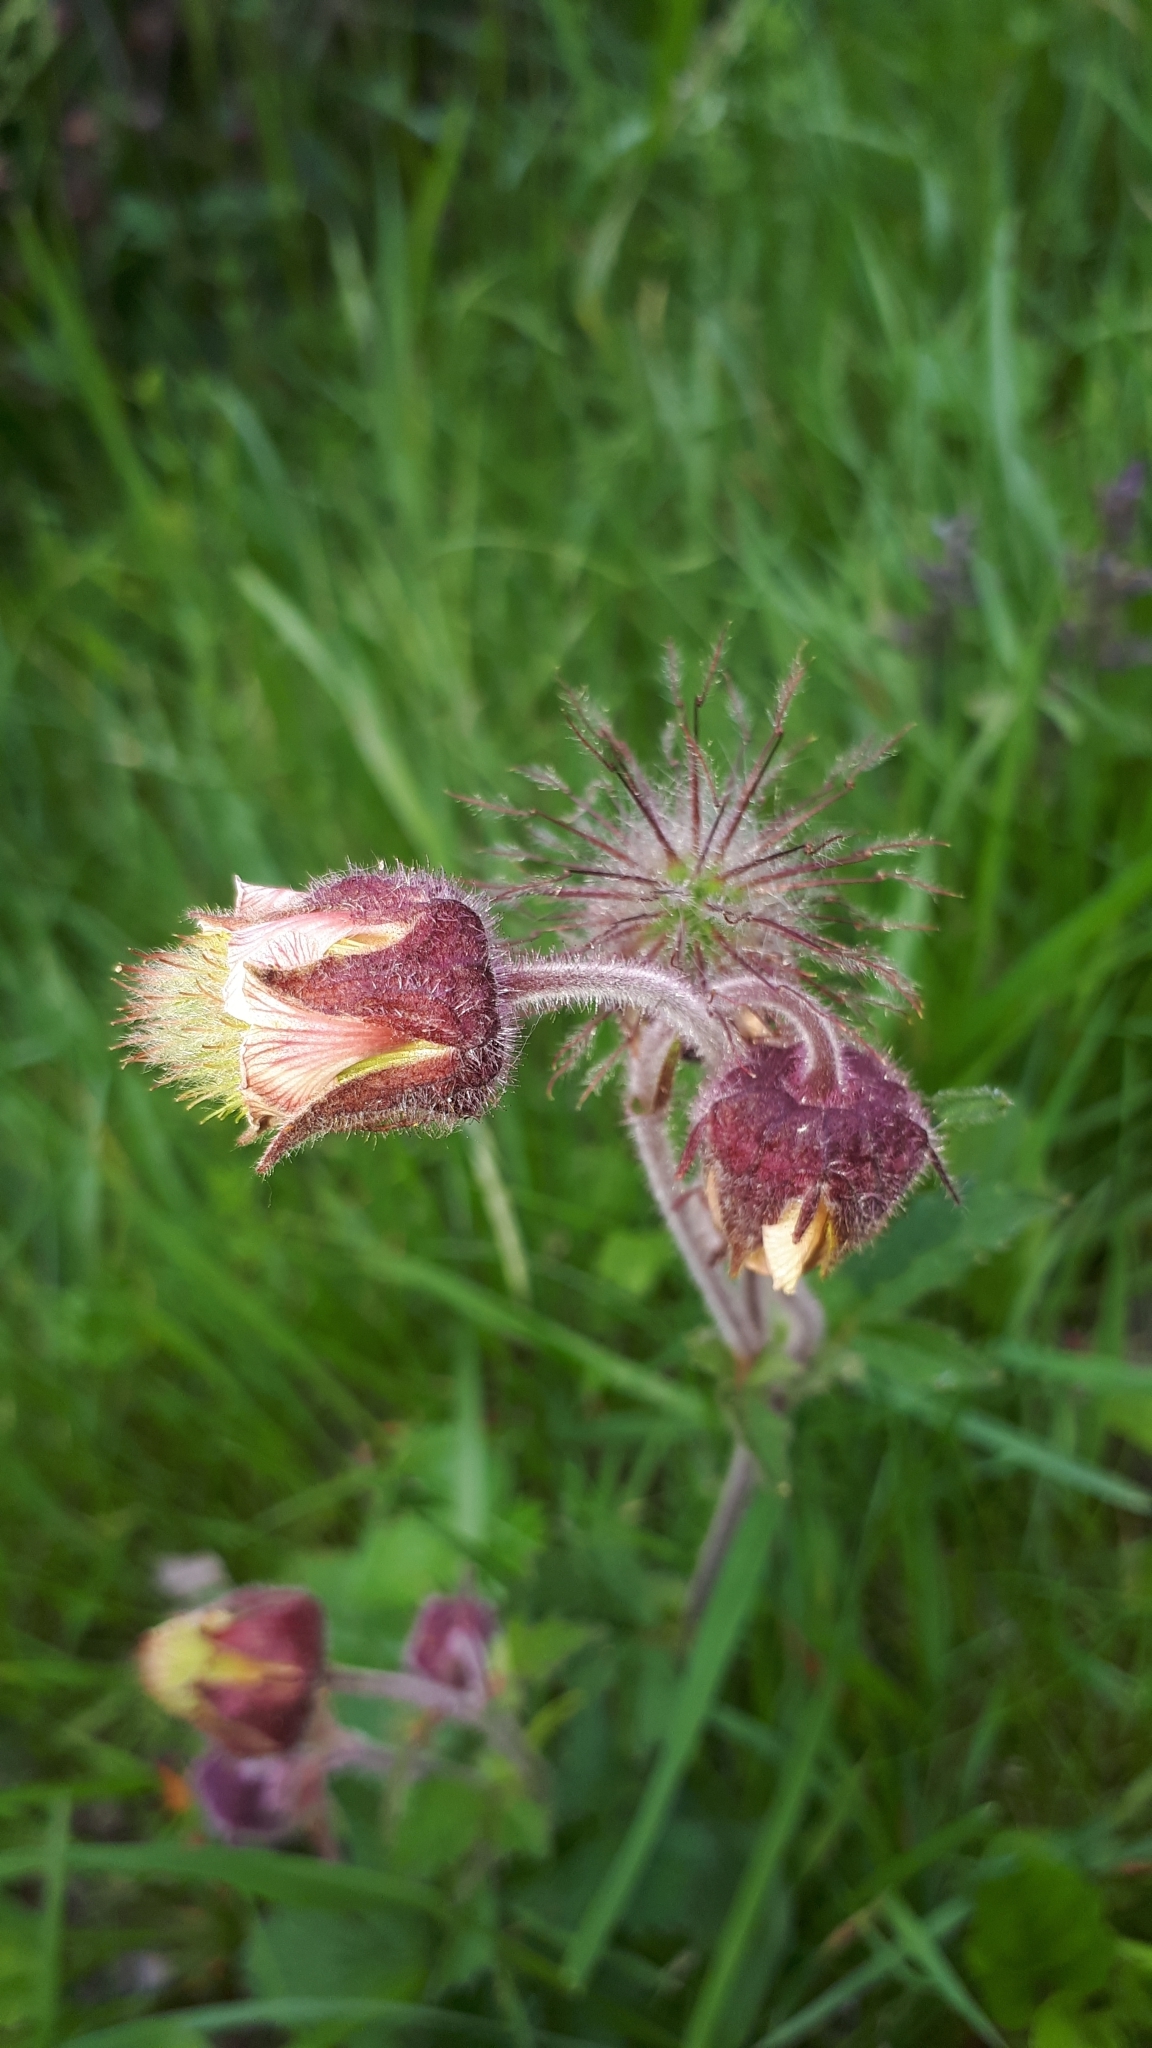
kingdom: Plantae
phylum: Tracheophyta
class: Magnoliopsida
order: Rosales
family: Rosaceae
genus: Geum
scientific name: Geum rivale
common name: Water avens
